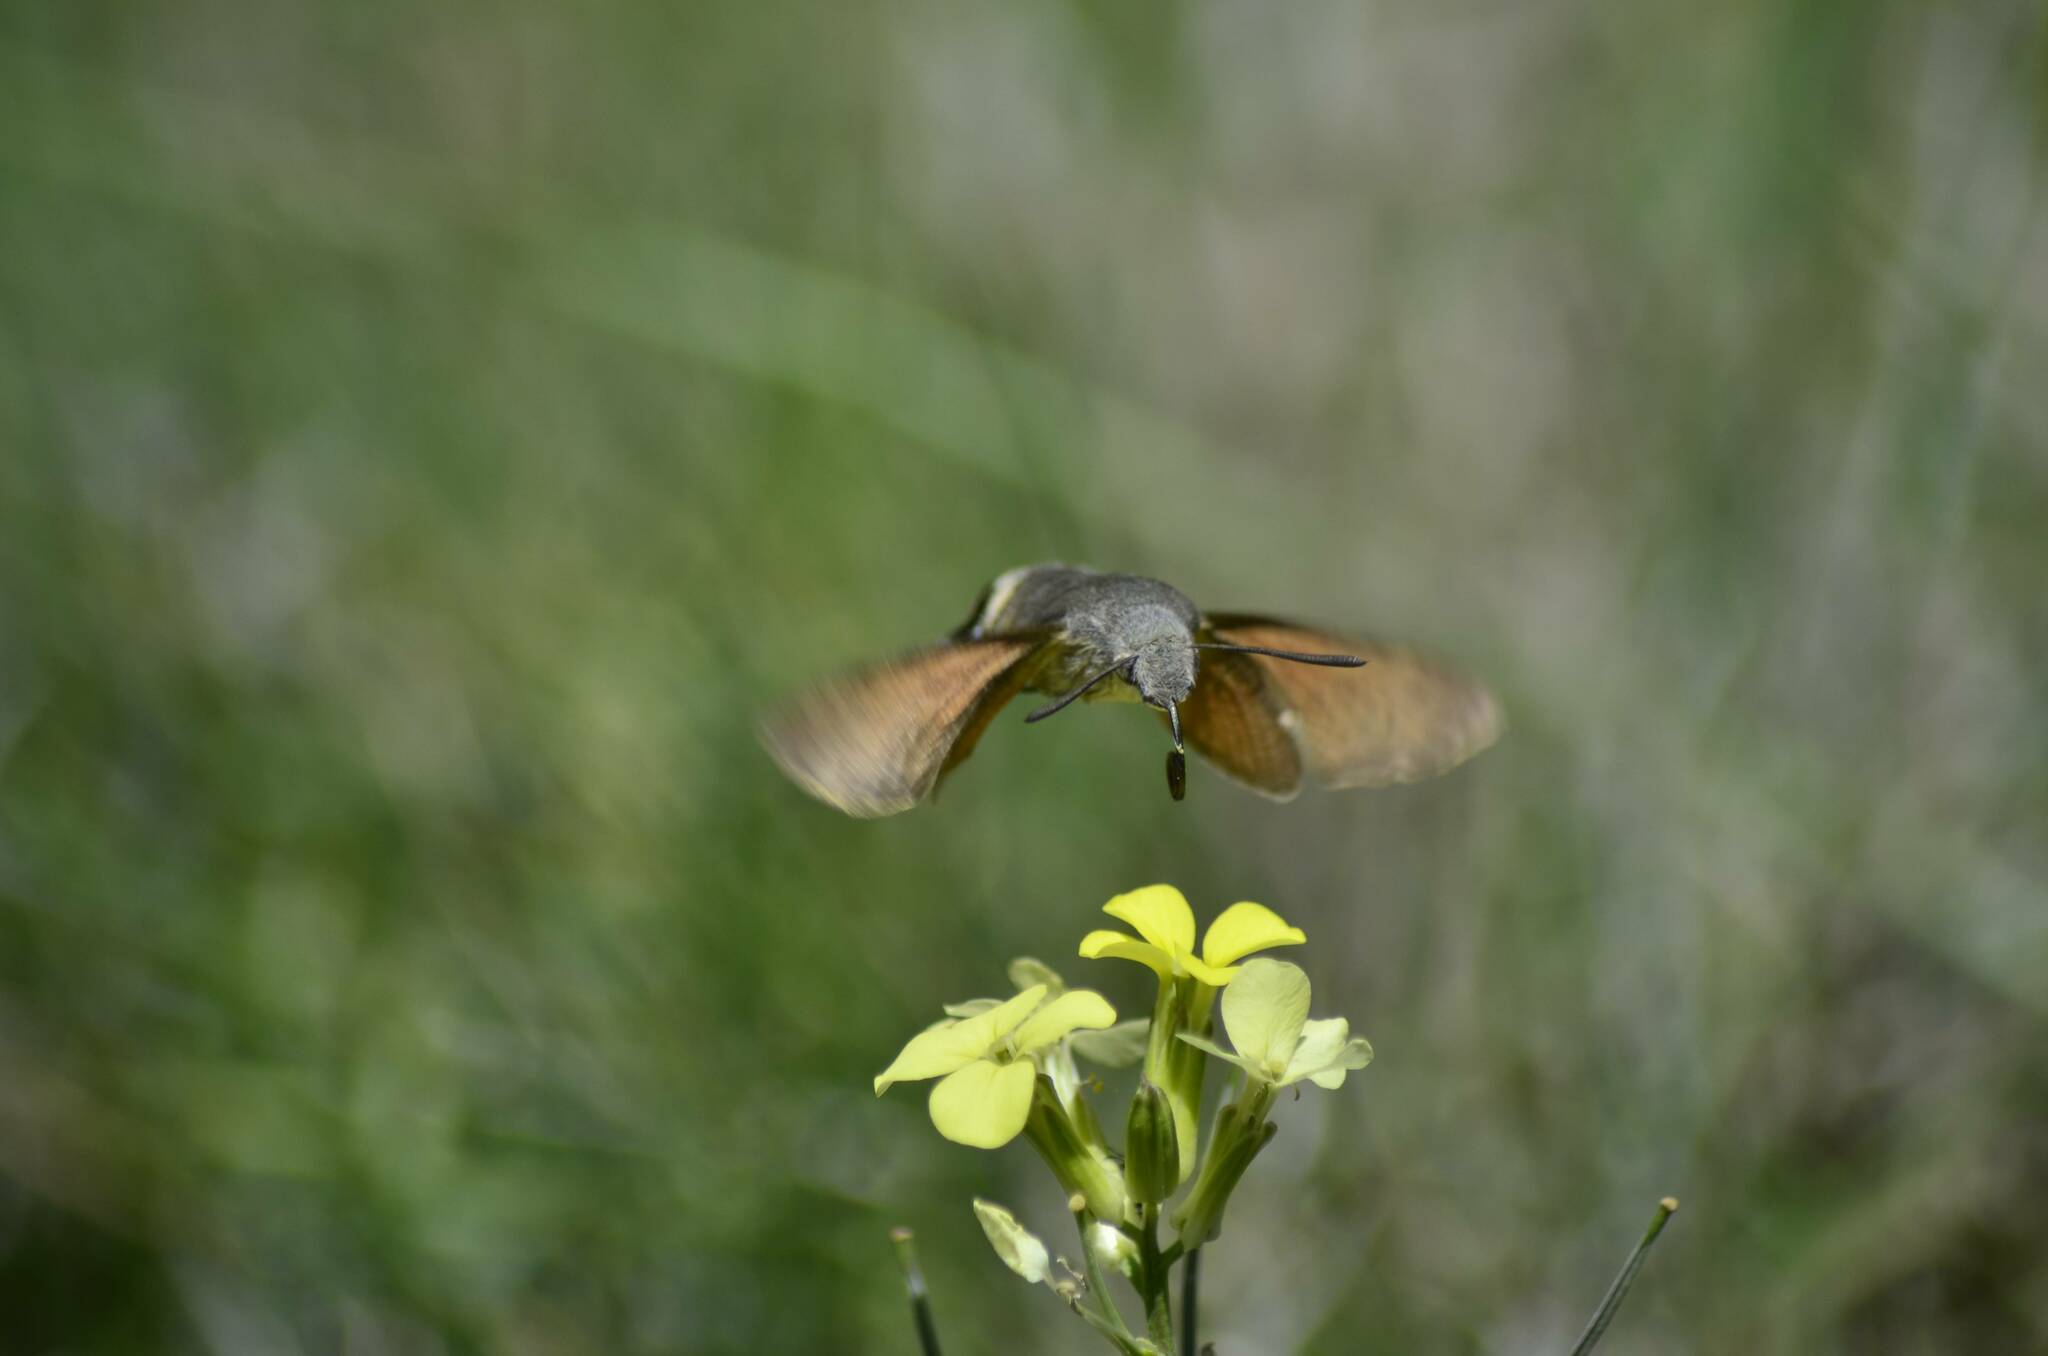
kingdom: Animalia
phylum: Arthropoda
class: Insecta
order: Lepidoptera
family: Sphingidae
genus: Macroglossum
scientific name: Macroglossum stellatarum
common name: Humming-bird hawk-moth
